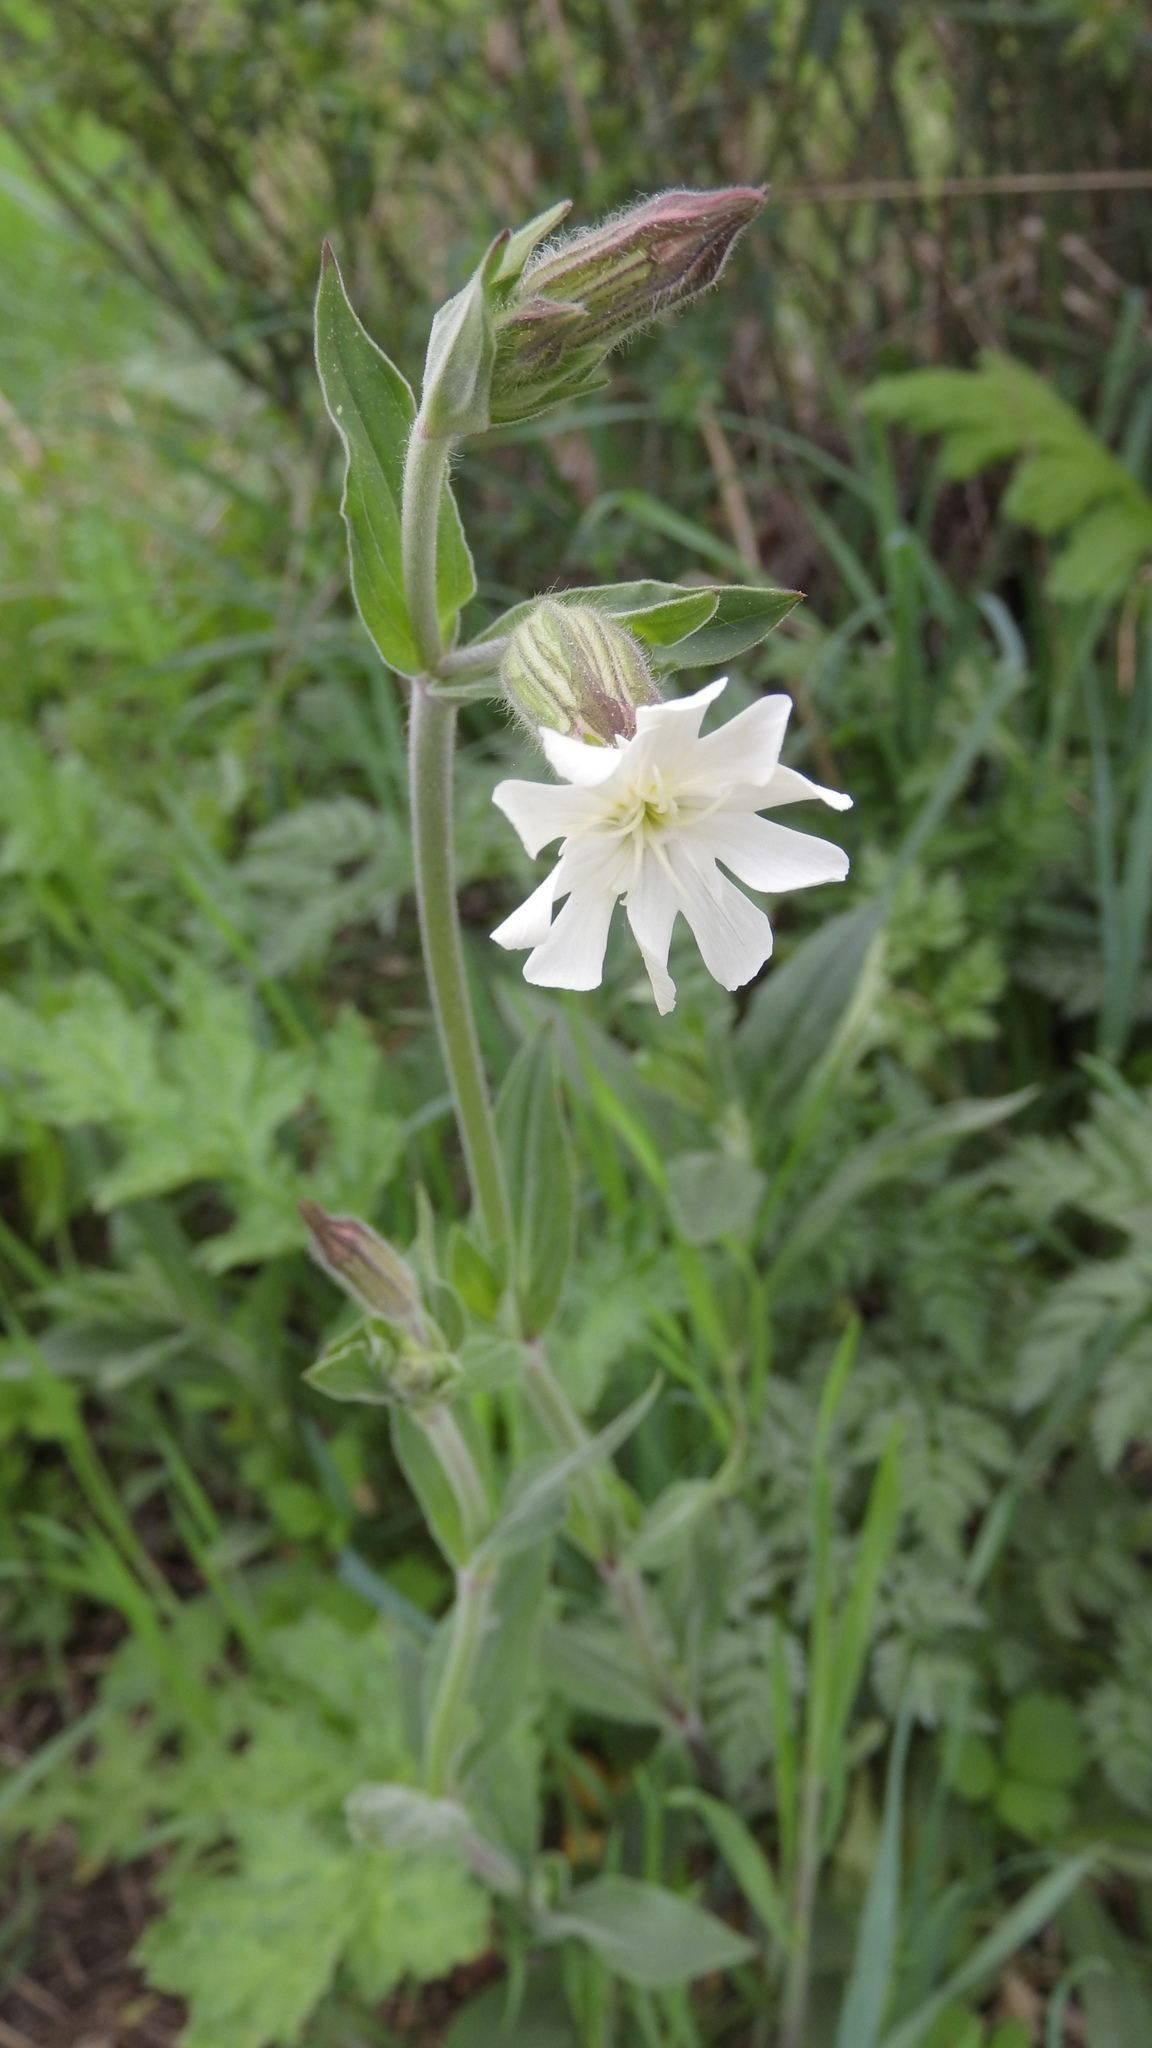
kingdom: Plantae
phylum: Tracheophyta
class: Magnoliopsida
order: Caryophyllales
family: Caryophyllaceae
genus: Silene
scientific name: Silene latifolia
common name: White campion
